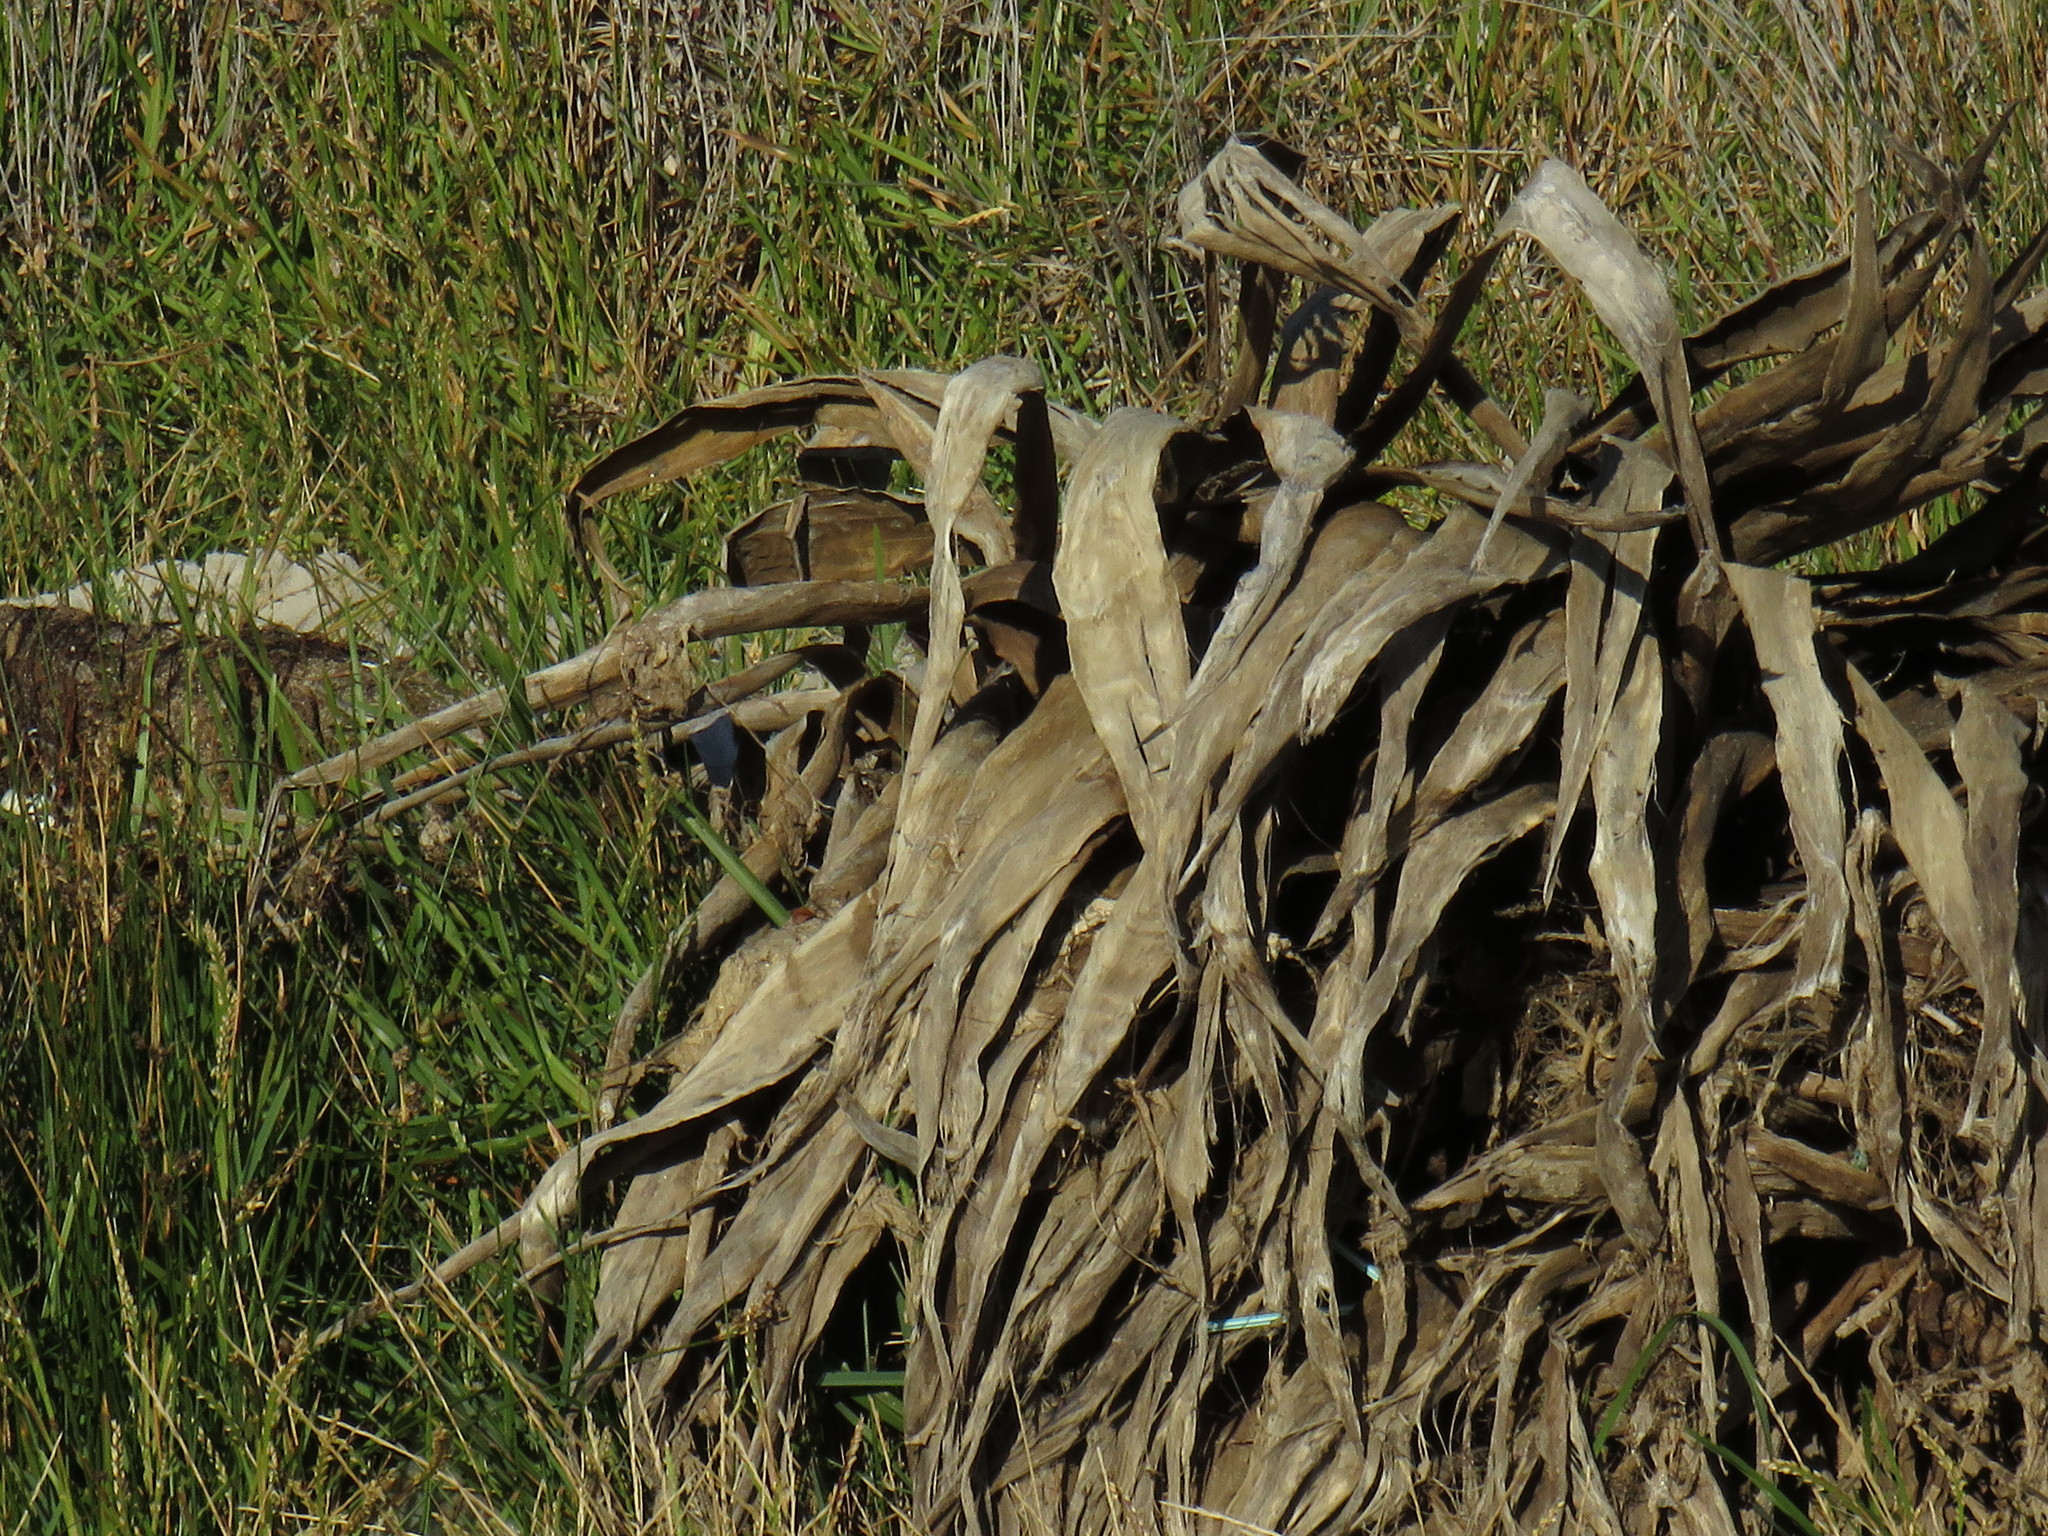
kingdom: Plantae
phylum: Tracheophyta
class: Liliopsida
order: Asparagales
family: Asparagaceae
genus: Agave
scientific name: Agave americana
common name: Centuryplant
